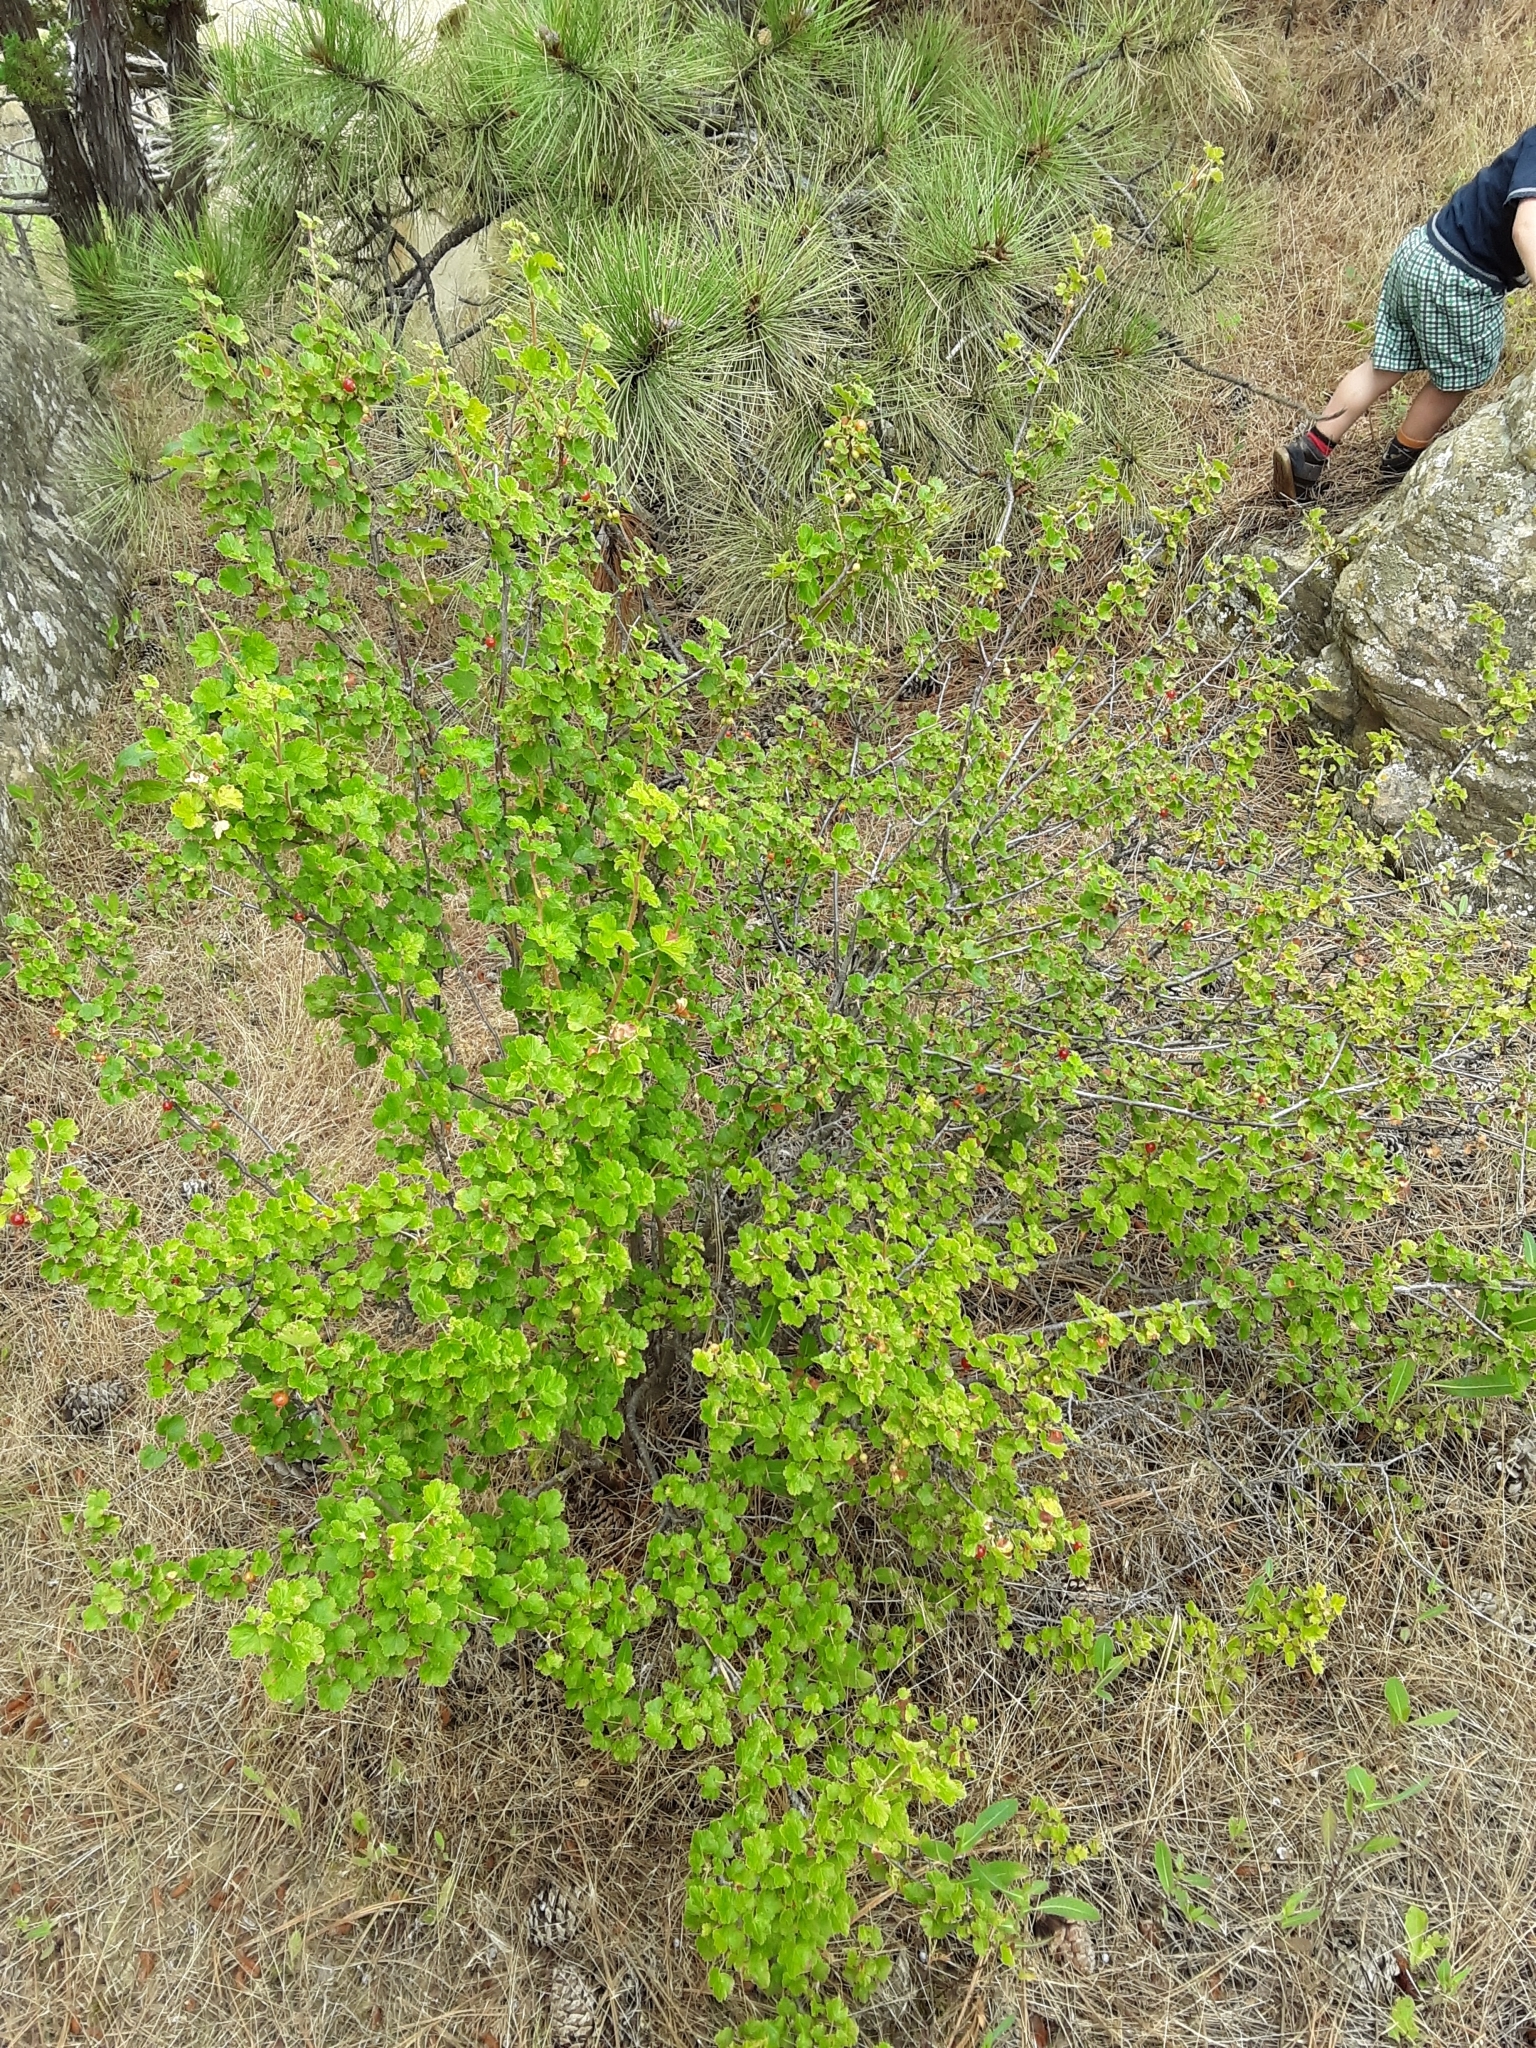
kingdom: Plantae
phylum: Tracheophyta
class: Magnoliopsida
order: Saxifragales
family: Grossulariaceae
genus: Ribes
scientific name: Ribes cereum
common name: Wax currant
